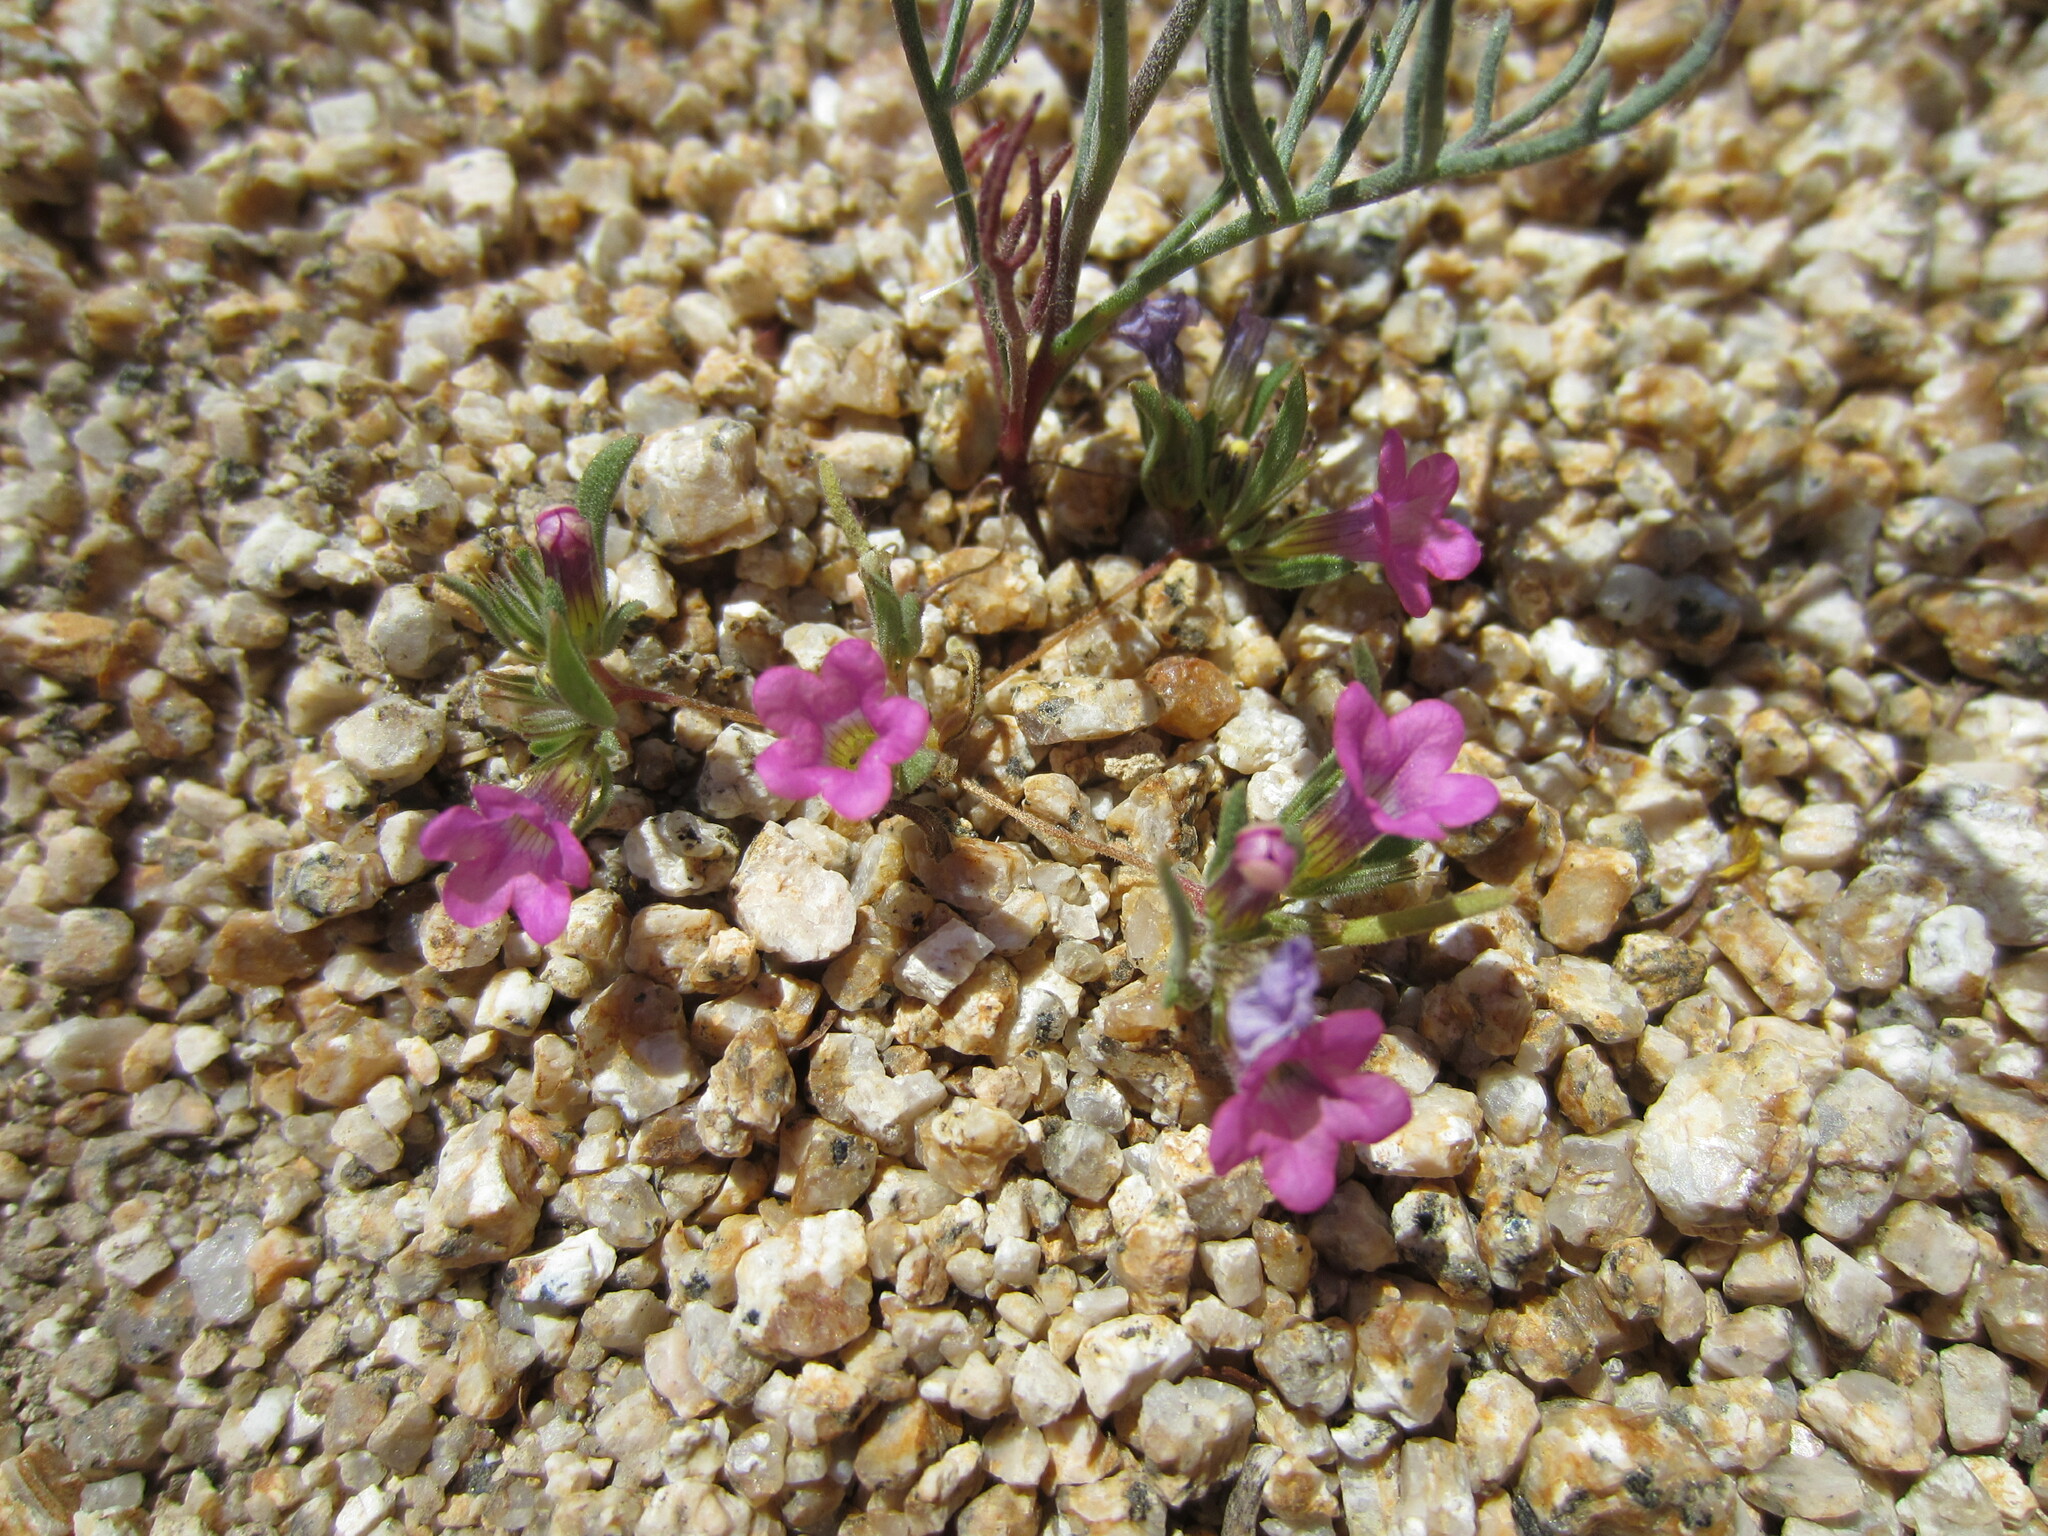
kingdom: Plantae
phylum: Tracheophyta
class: Magnoliopsida
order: Boraginales
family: Namaceae
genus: Nama
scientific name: Nama demissa
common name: Leafy nama
